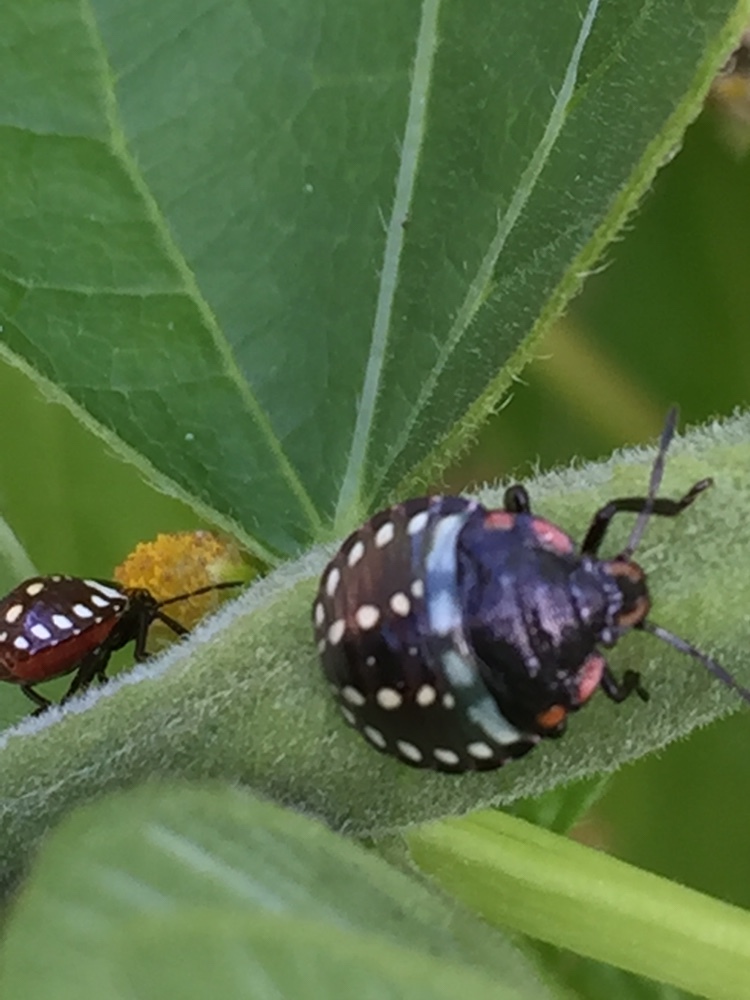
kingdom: Animalia
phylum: Arthropoda
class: Insecta
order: Hemiptera
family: Pentatomidae
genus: Nezara
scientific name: Nezara viridula
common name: Southern green stink bug
